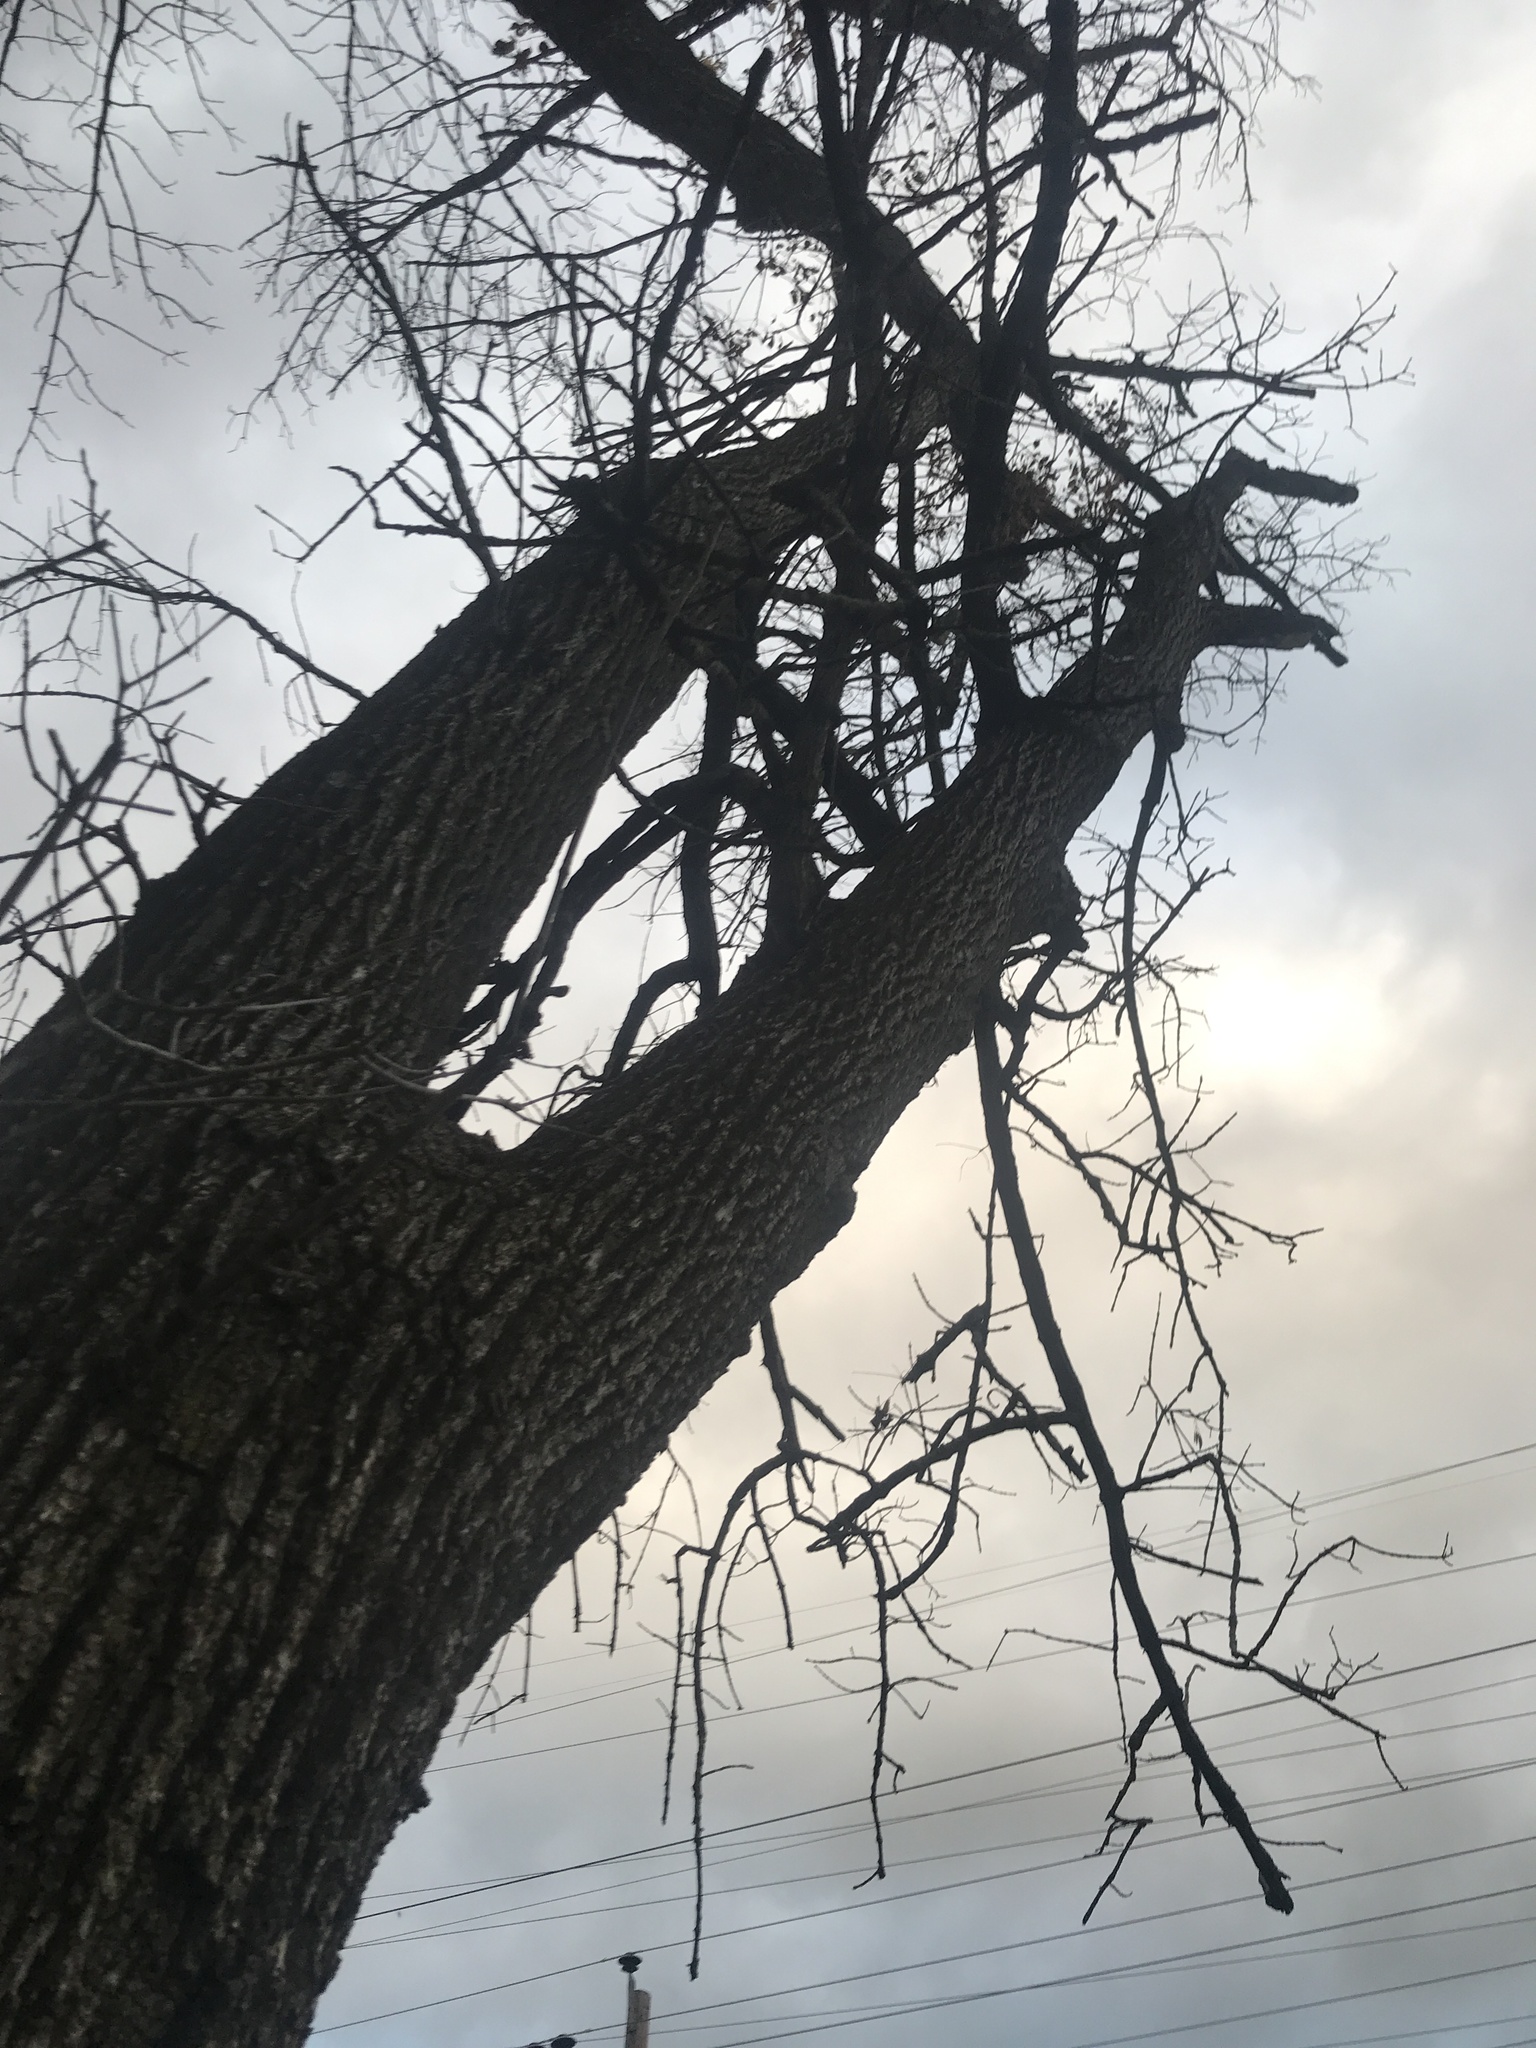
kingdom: Animalia
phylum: Arthropoda
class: Insecta
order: Coleoptera
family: Buprestidae
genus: Agrilus
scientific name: Agrilus planipennis
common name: Emerald ash borer
